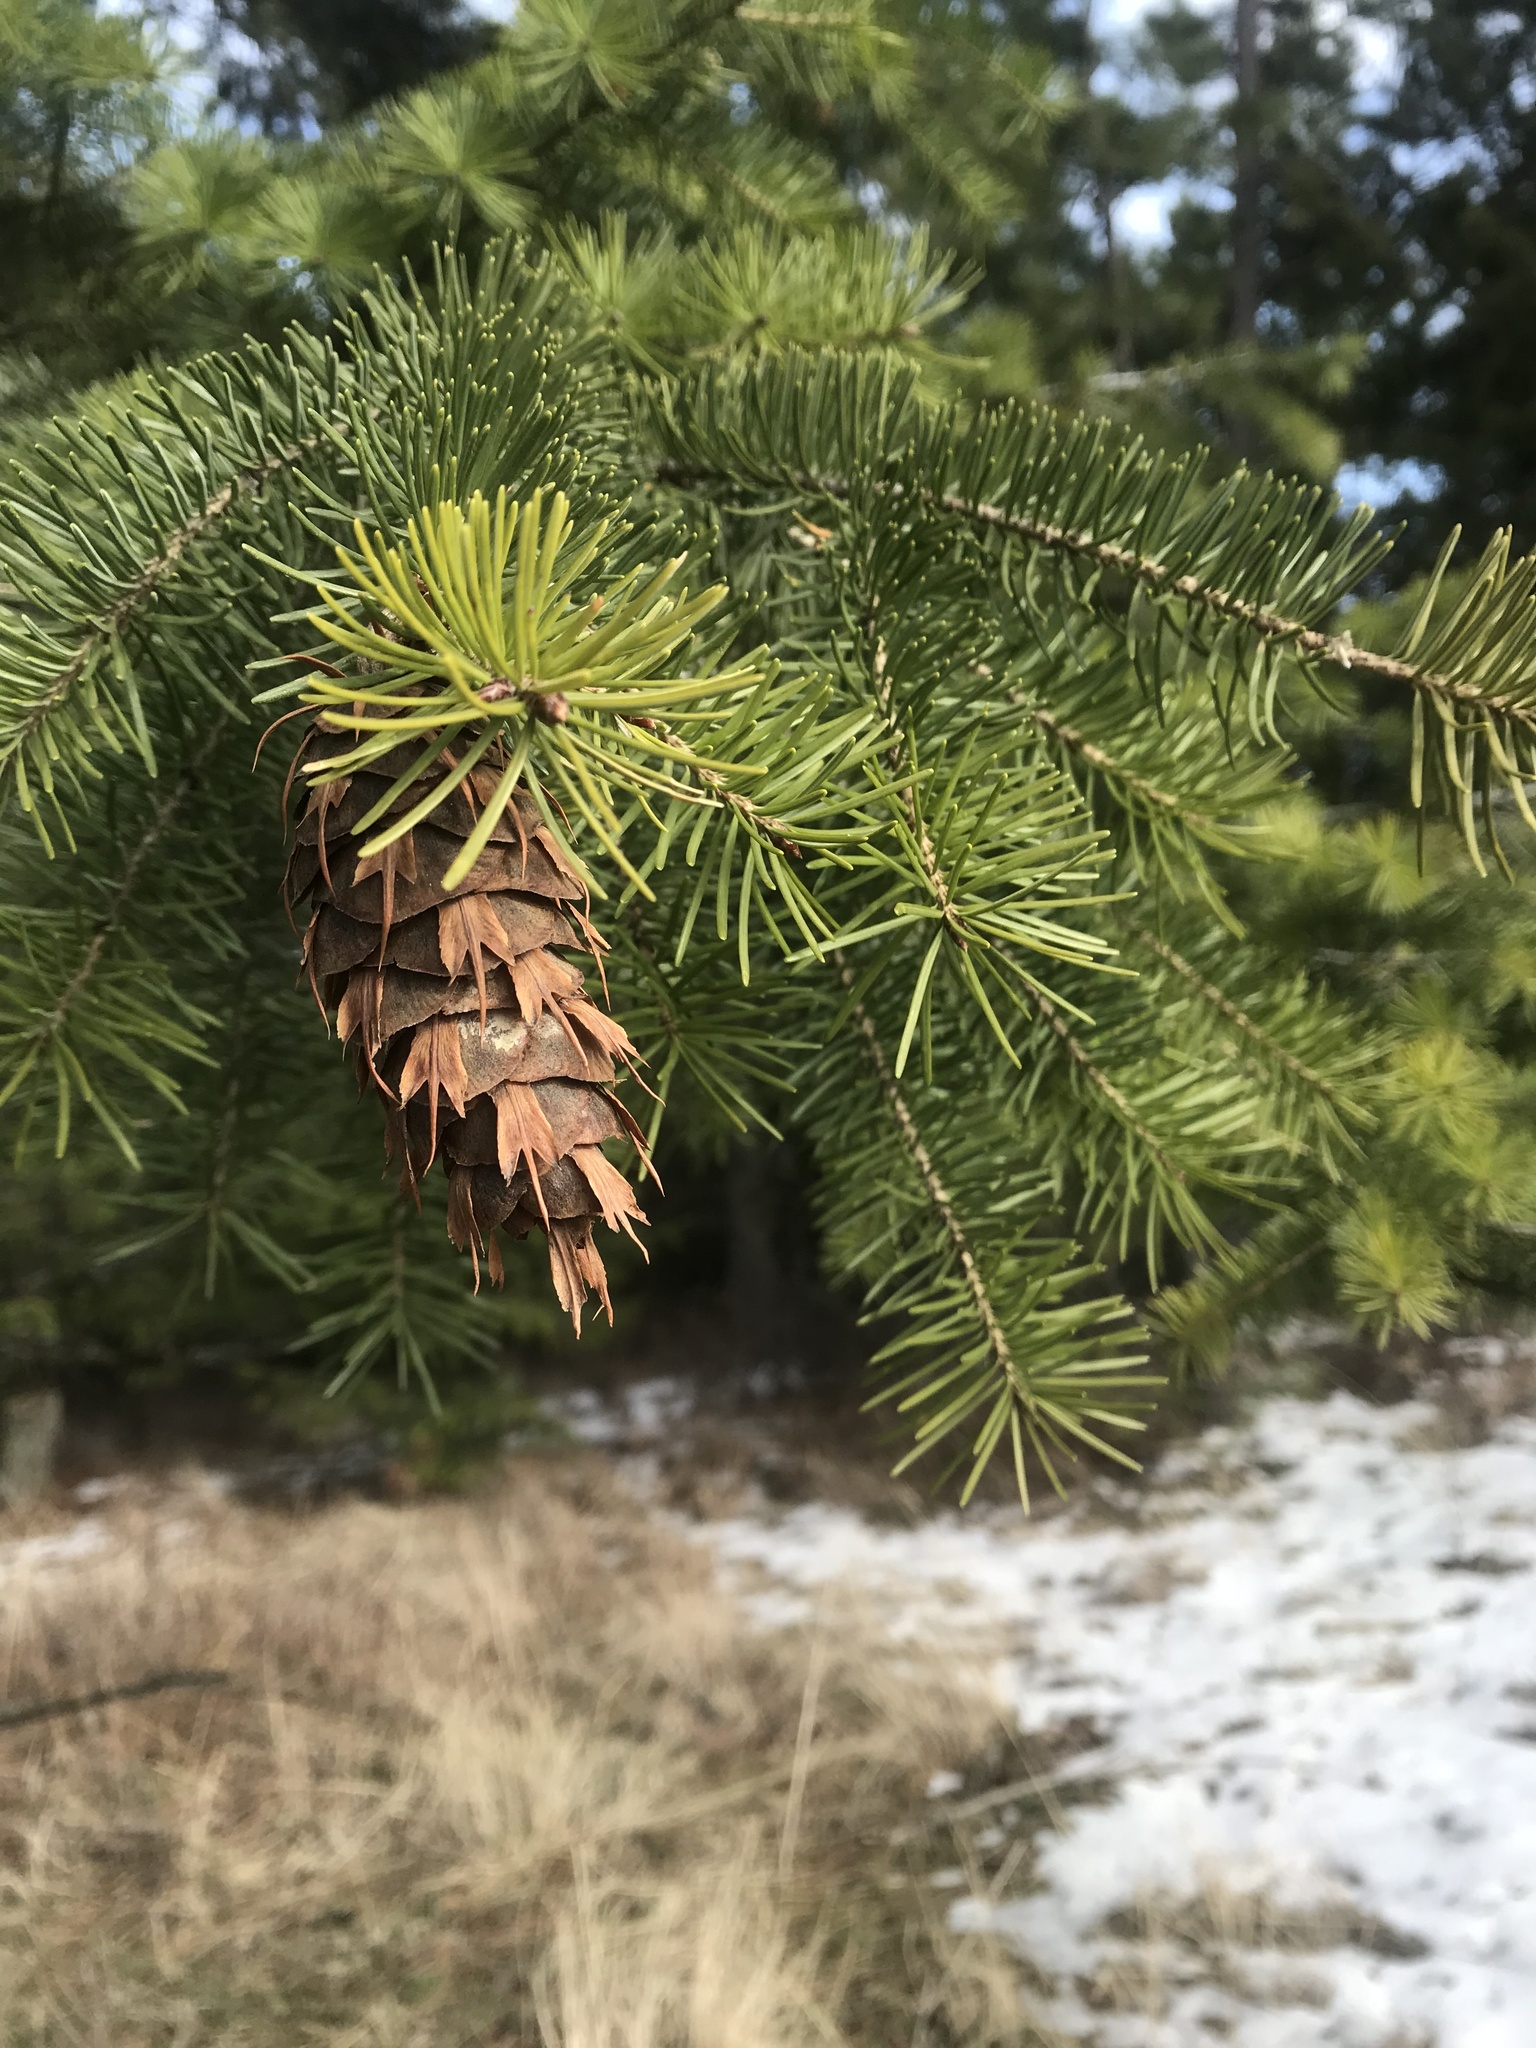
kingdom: Plantae
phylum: Tracheophyta
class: Pinopsida
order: Pinales
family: Pinaceae
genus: Pseudotsuga
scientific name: Pseudotsuga menziesii
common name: Douglas fir
